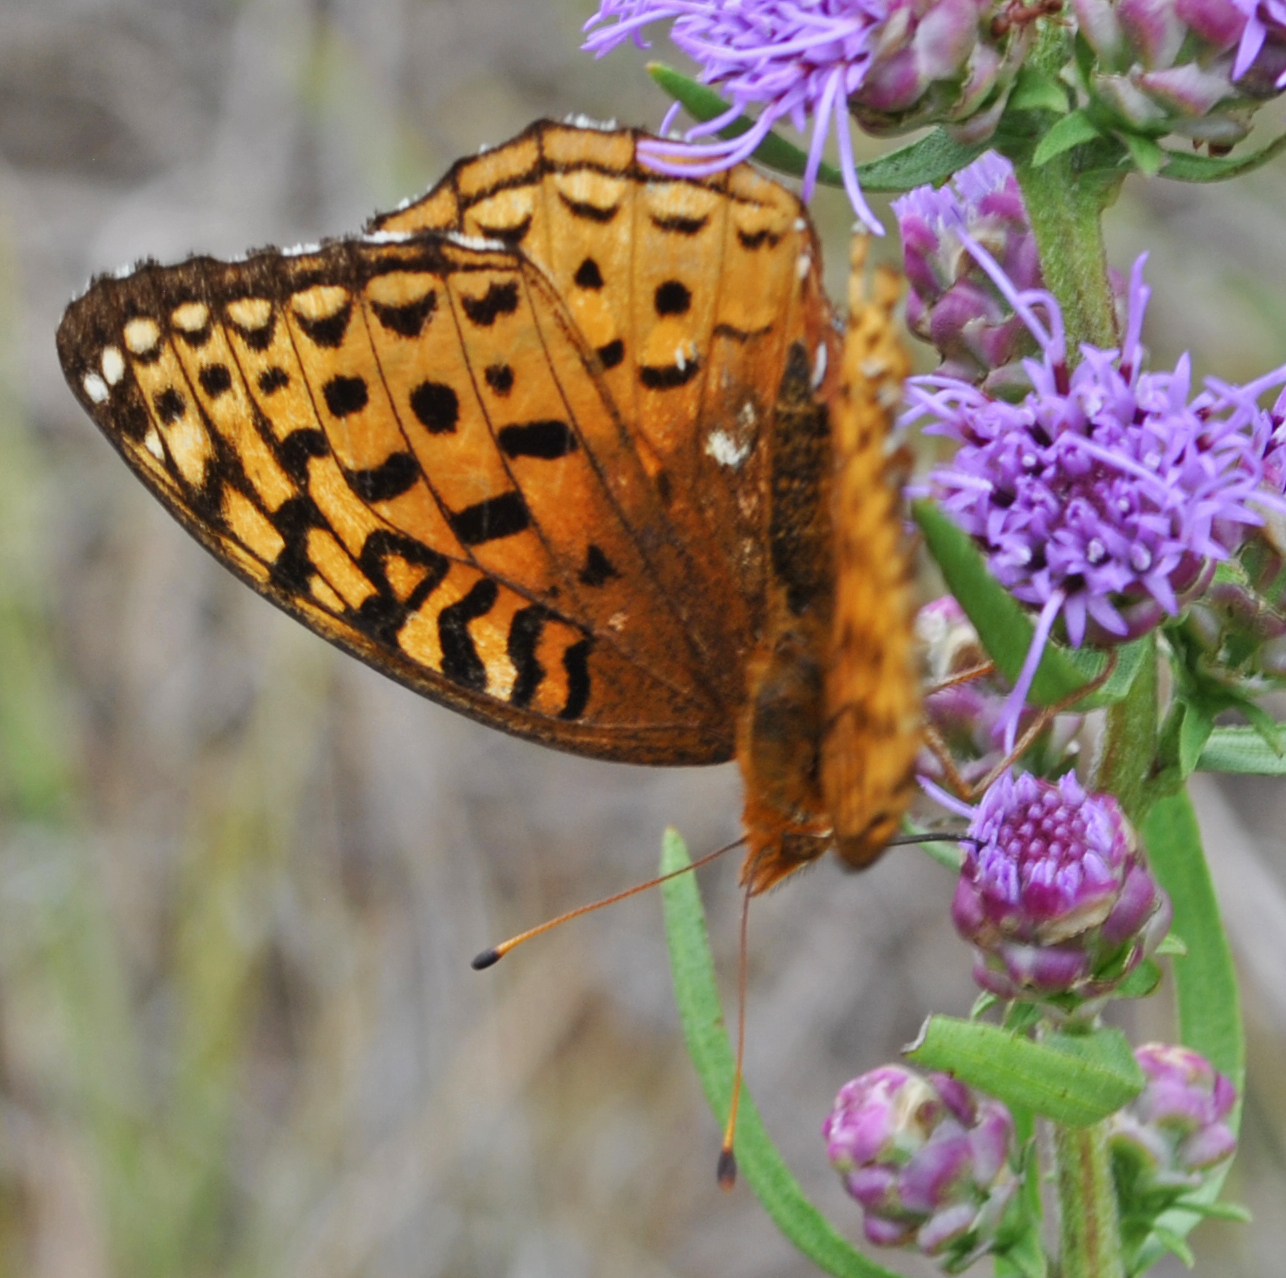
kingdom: Animalia
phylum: Arthropoda
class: Insecta
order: Lepidoptera
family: Nymphalidae
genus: Speyeria
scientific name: Speyeria cybele
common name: Great spangled fritillary
